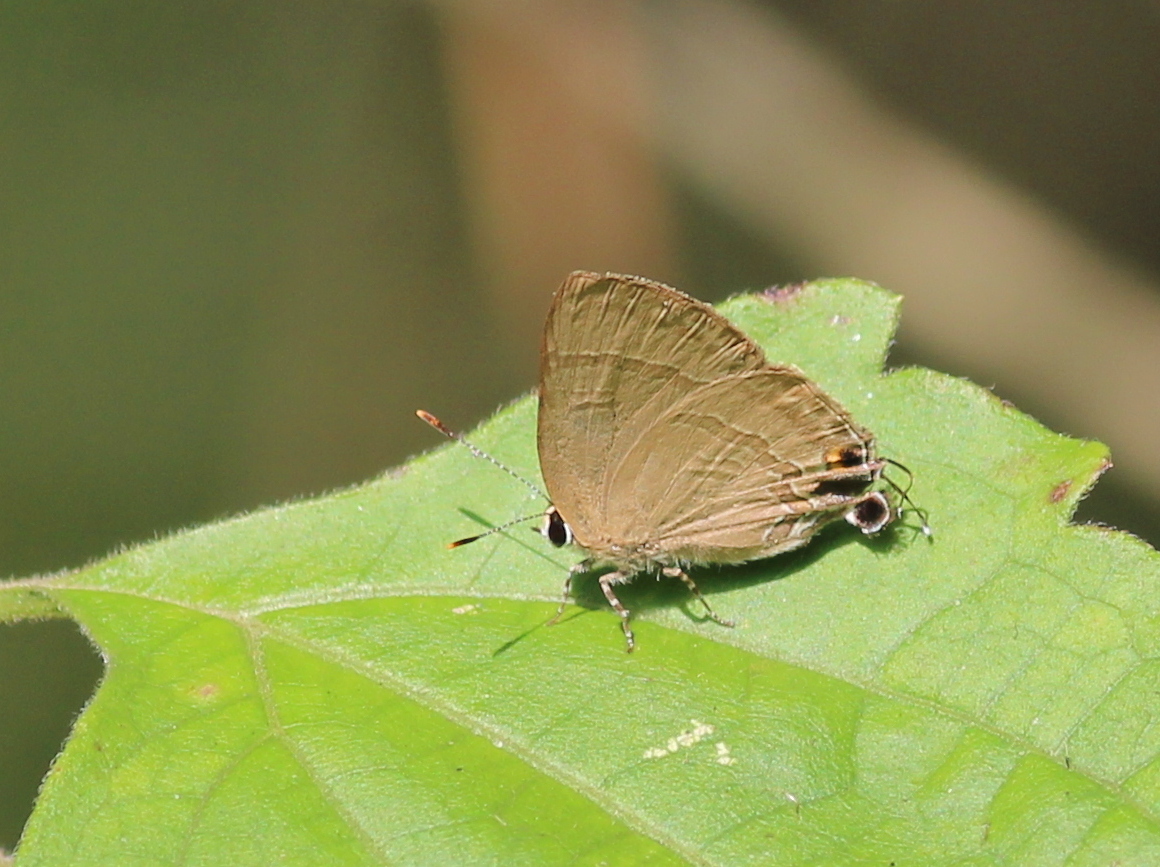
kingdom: Animalia
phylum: Arthropoda
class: Insecta
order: Lepidoptera
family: Lycaenidae
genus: Rapala
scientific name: Rapala manea
